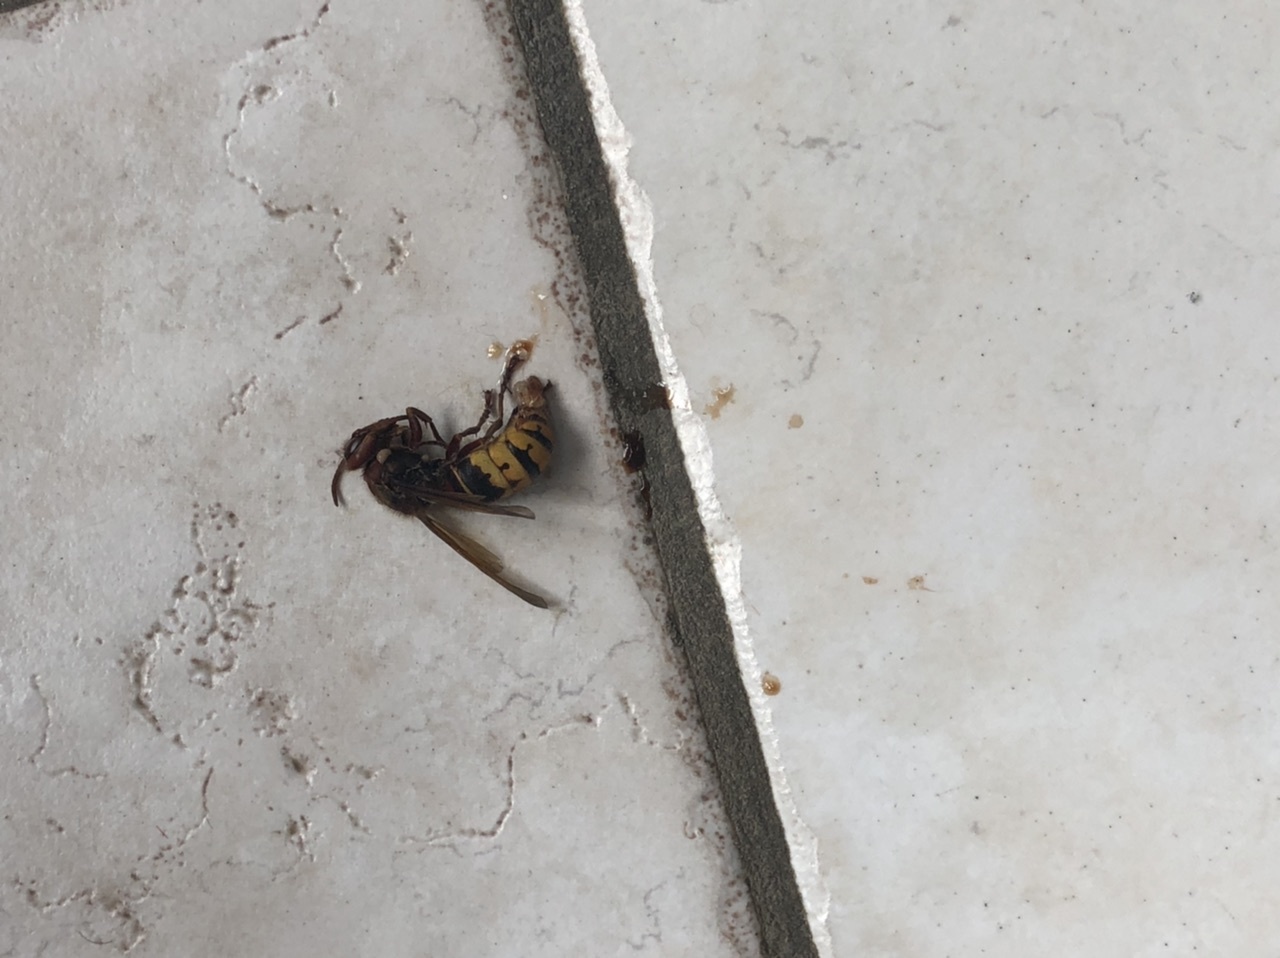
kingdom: Animalia
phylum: Arthropoda
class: Insecta
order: Hymenoptera
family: Vespidae
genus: Vespa
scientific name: Vespa crabro
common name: Hornet
